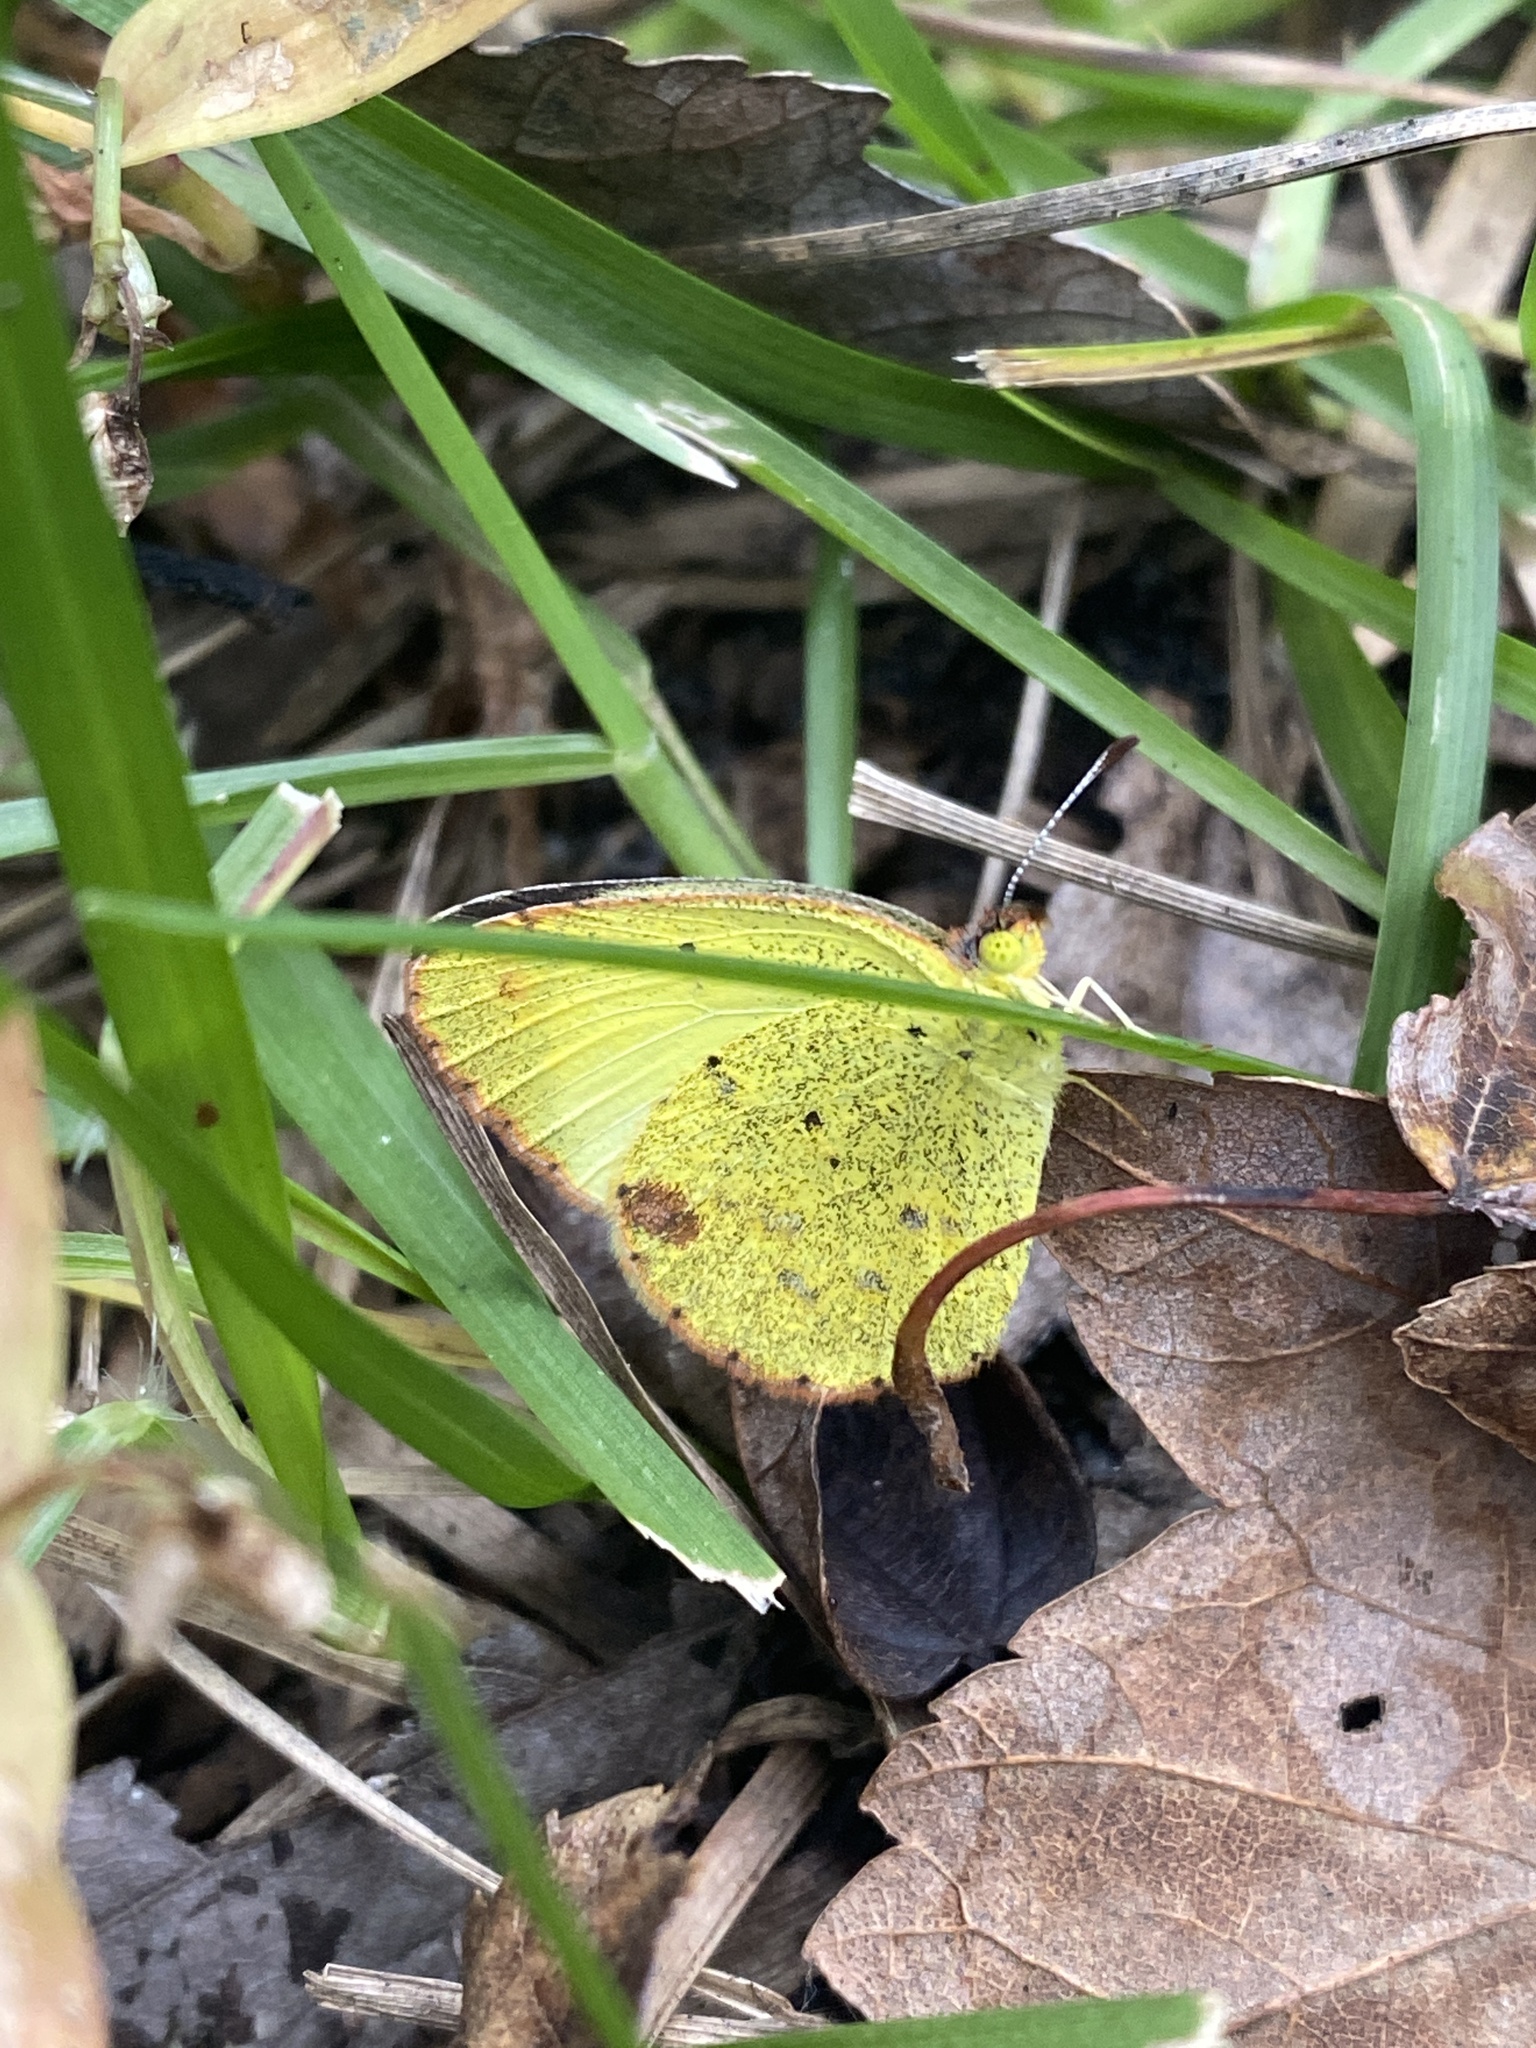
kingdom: Animalia
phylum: Arthropoda
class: Insecta
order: Lepidoptera
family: Pieridae
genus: Pyrisitia
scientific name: Pyrisitia lisa
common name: Little yellow
